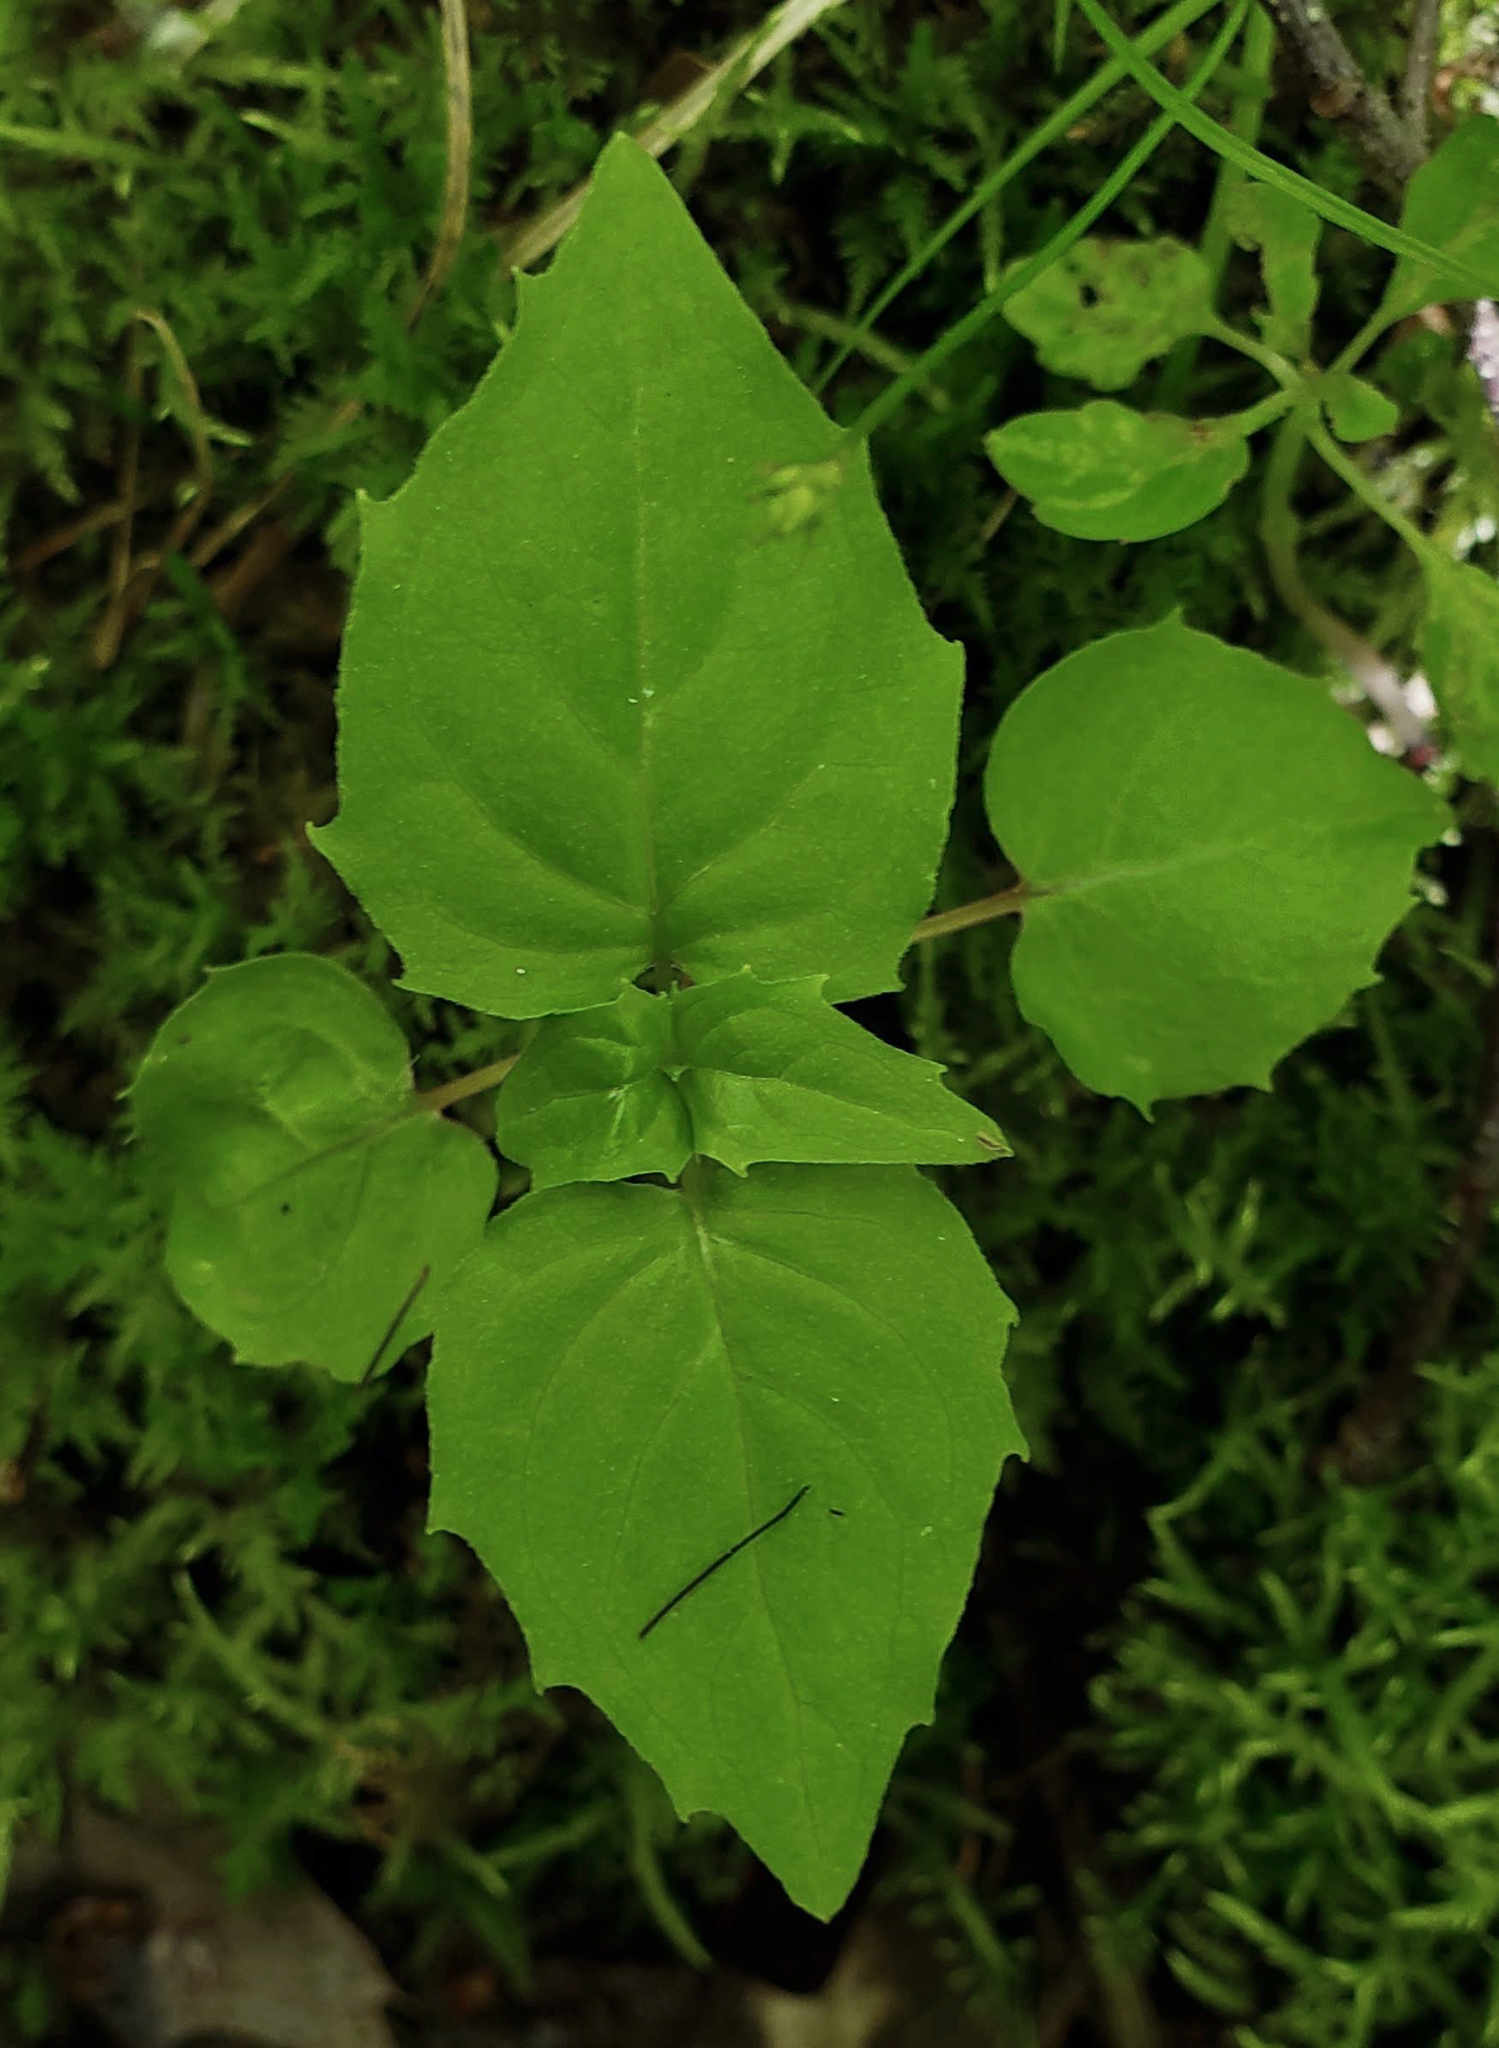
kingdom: Plantae
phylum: Tracheophyta
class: Magnoliopsida
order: Myrtales
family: Onagraceae
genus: Circaea
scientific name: Circaea alpina
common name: Alpine enchanter's-nightshade
